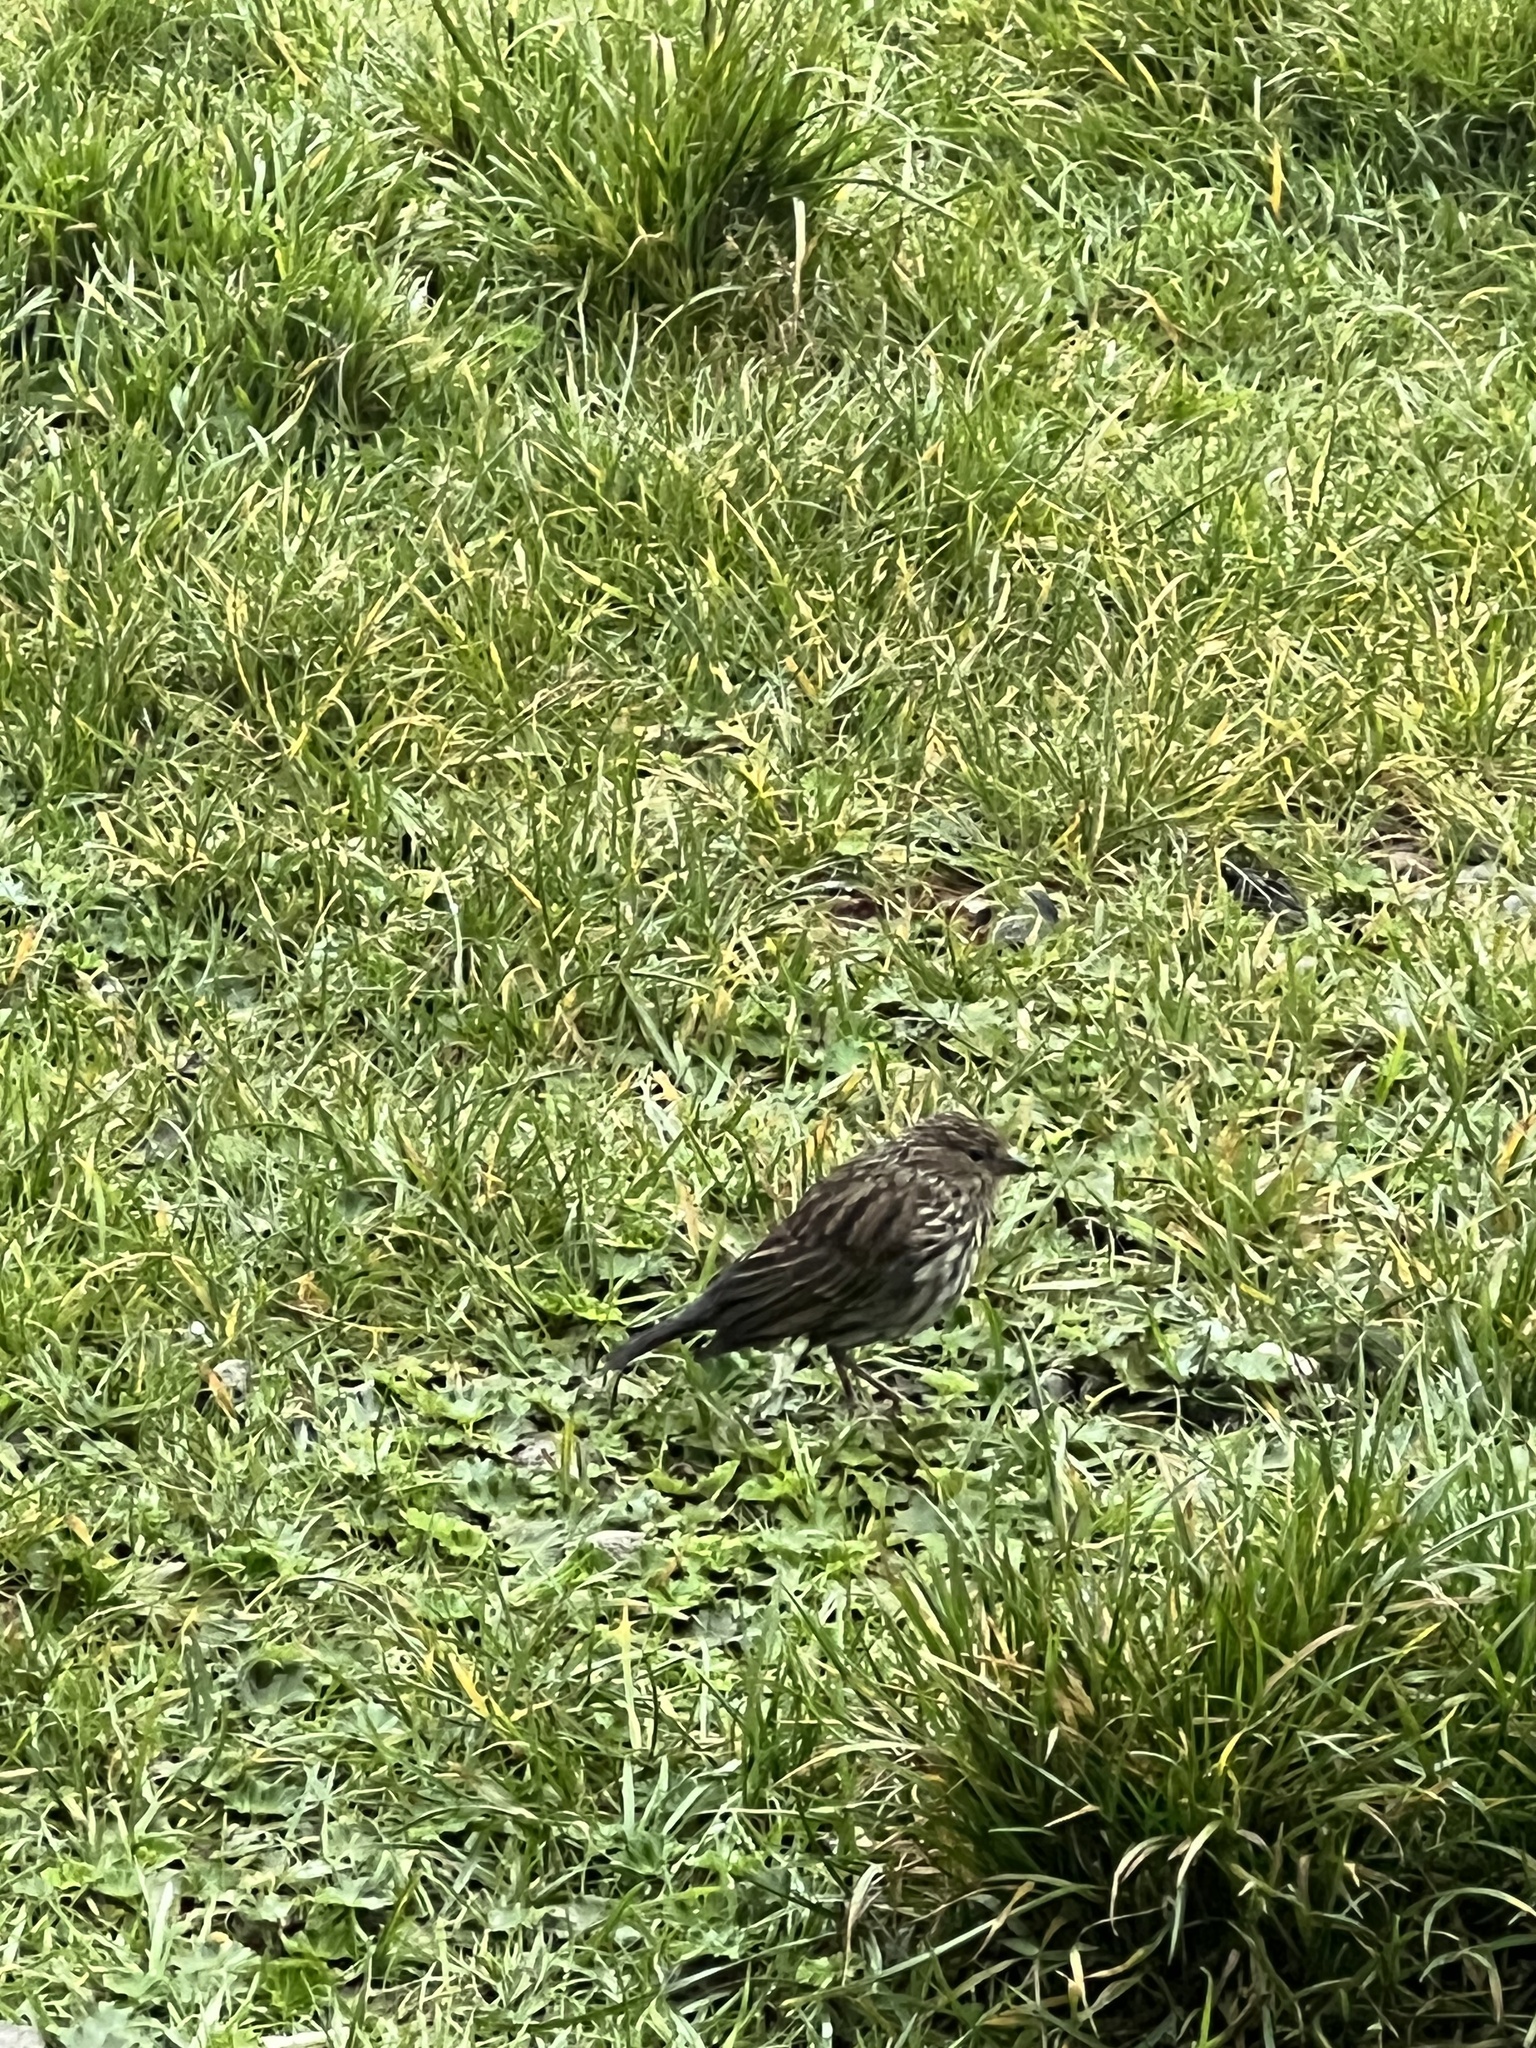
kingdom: Animalia
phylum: Chordata
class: Aves
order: Passeriformes
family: Thraupidae
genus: Geospizopsis
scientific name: Geospizopsis unicolor
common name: Plumbeous sierra-finch
